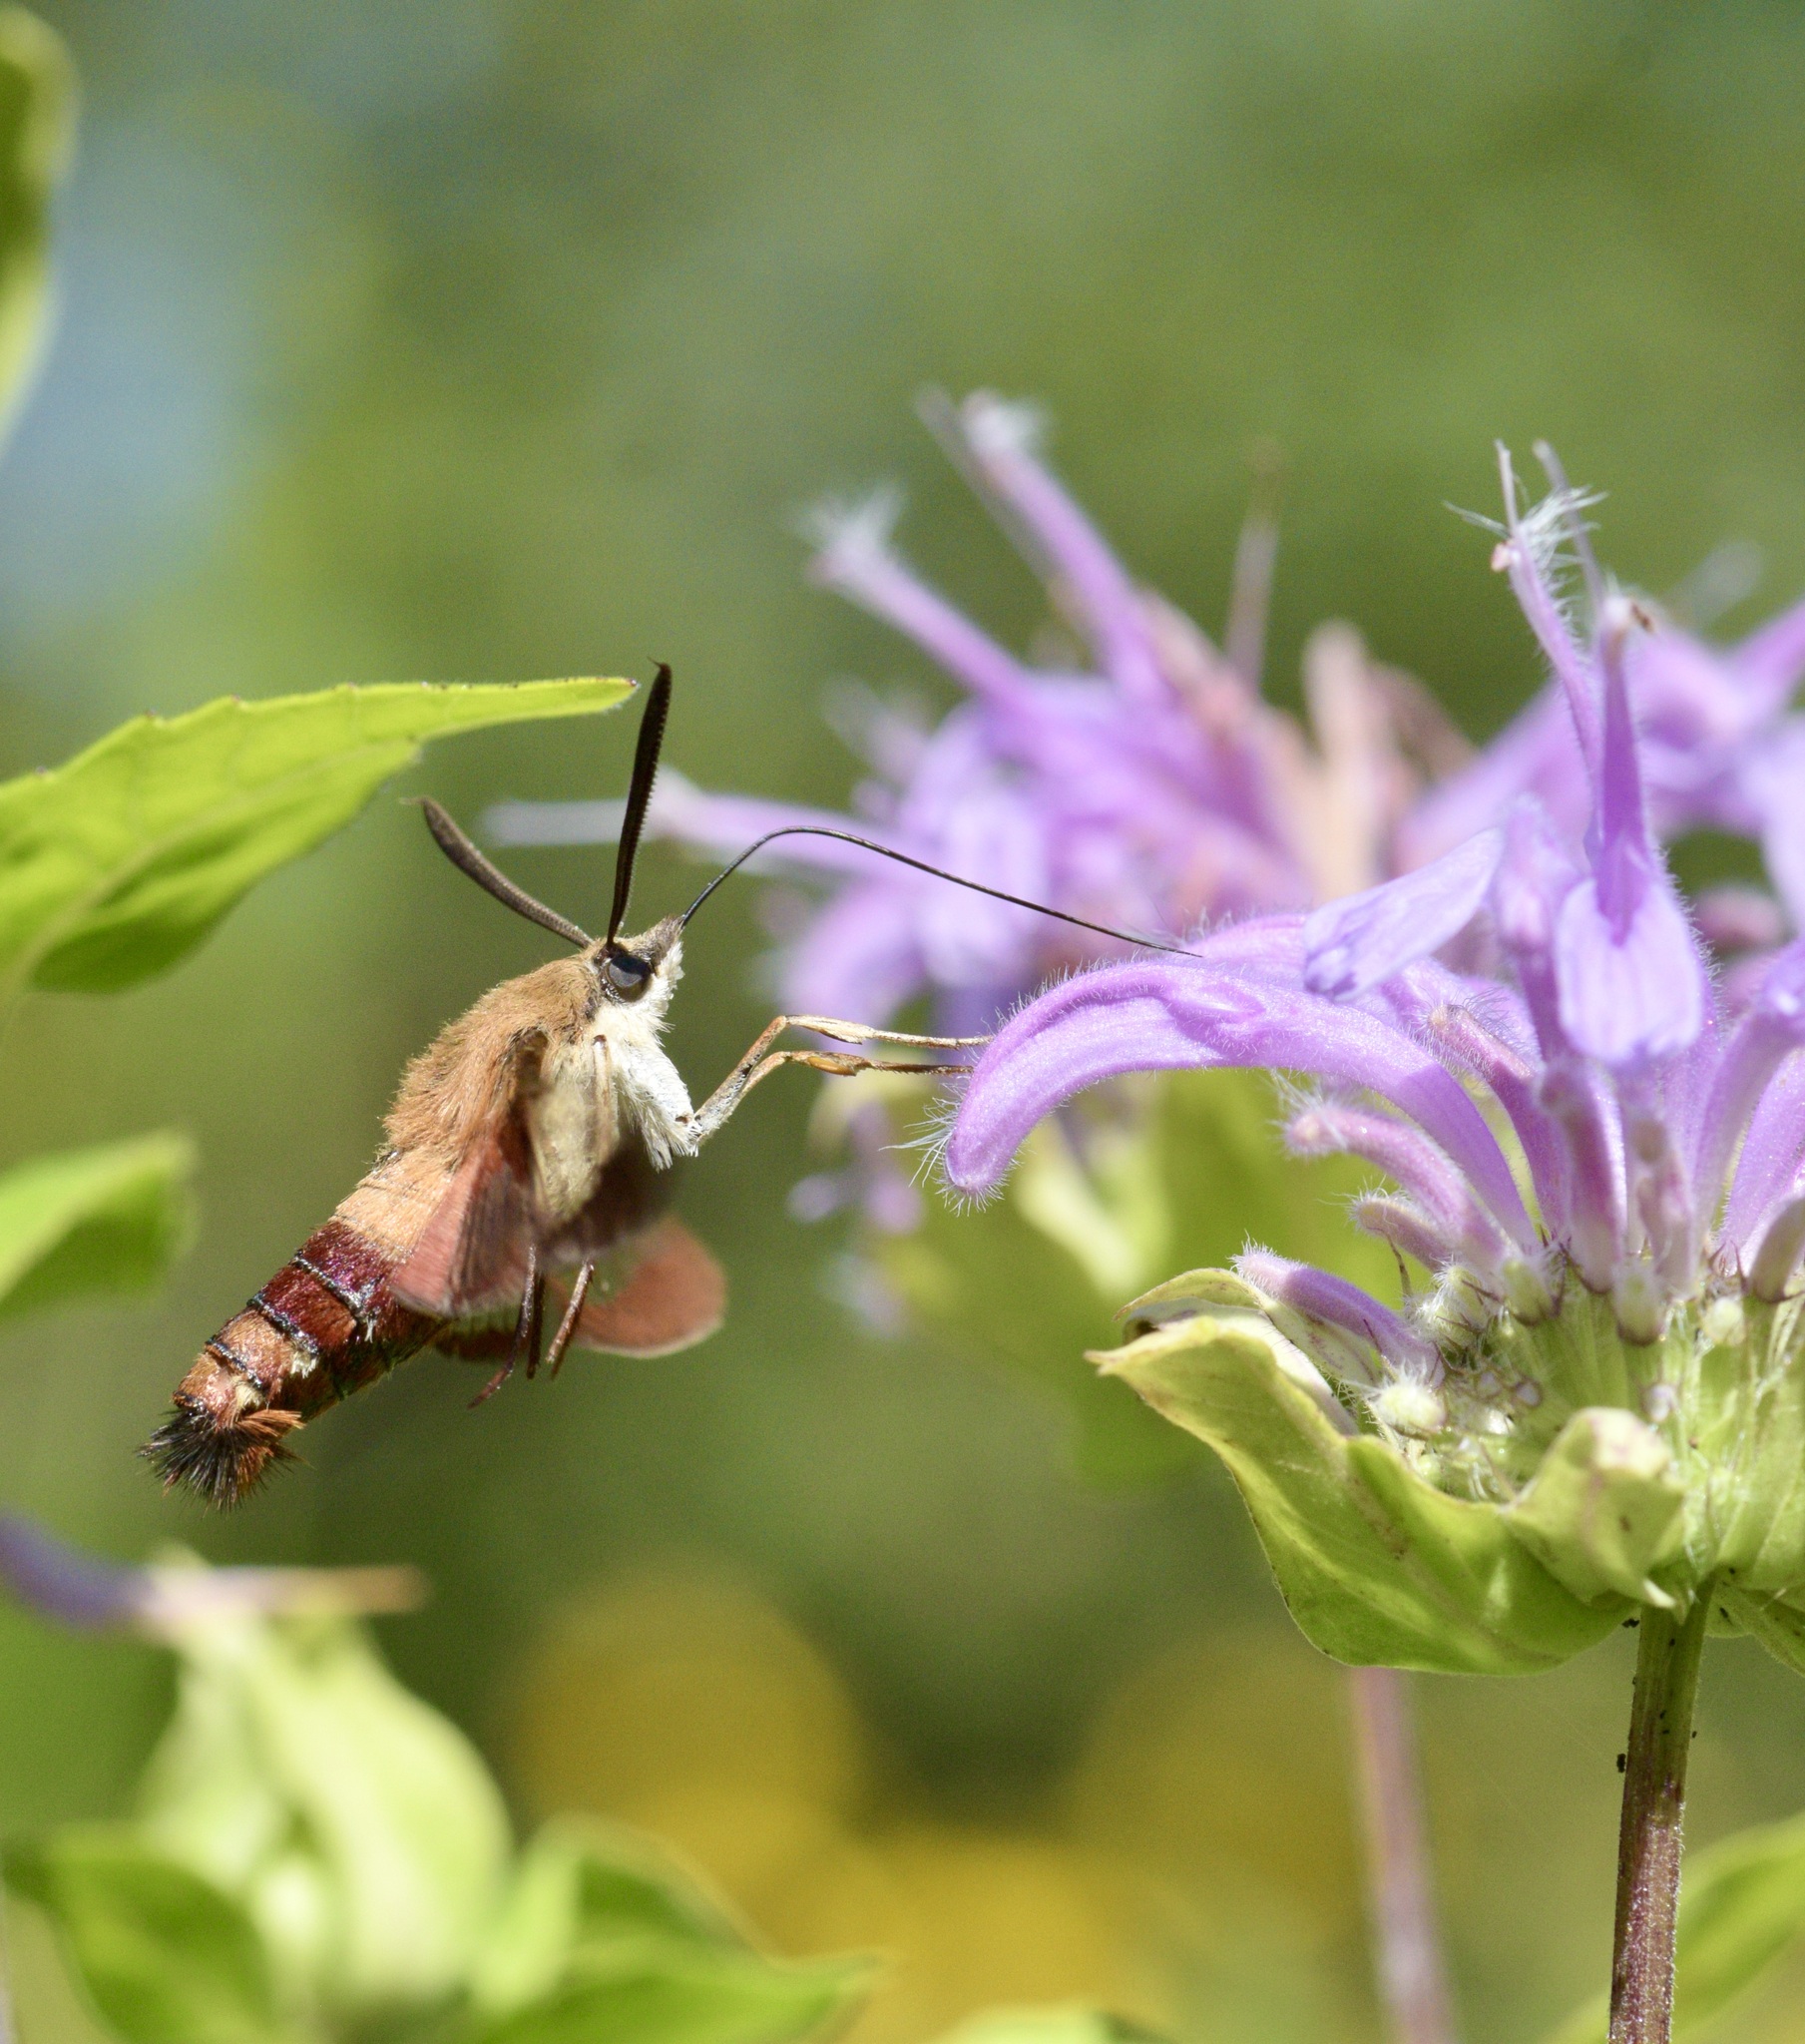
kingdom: Animalia
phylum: Arthropoda
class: Insecta
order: Lepidoptera
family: Sphingidae
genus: Hemaris
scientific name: Hemaris thysbe
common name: Common clear-wing
